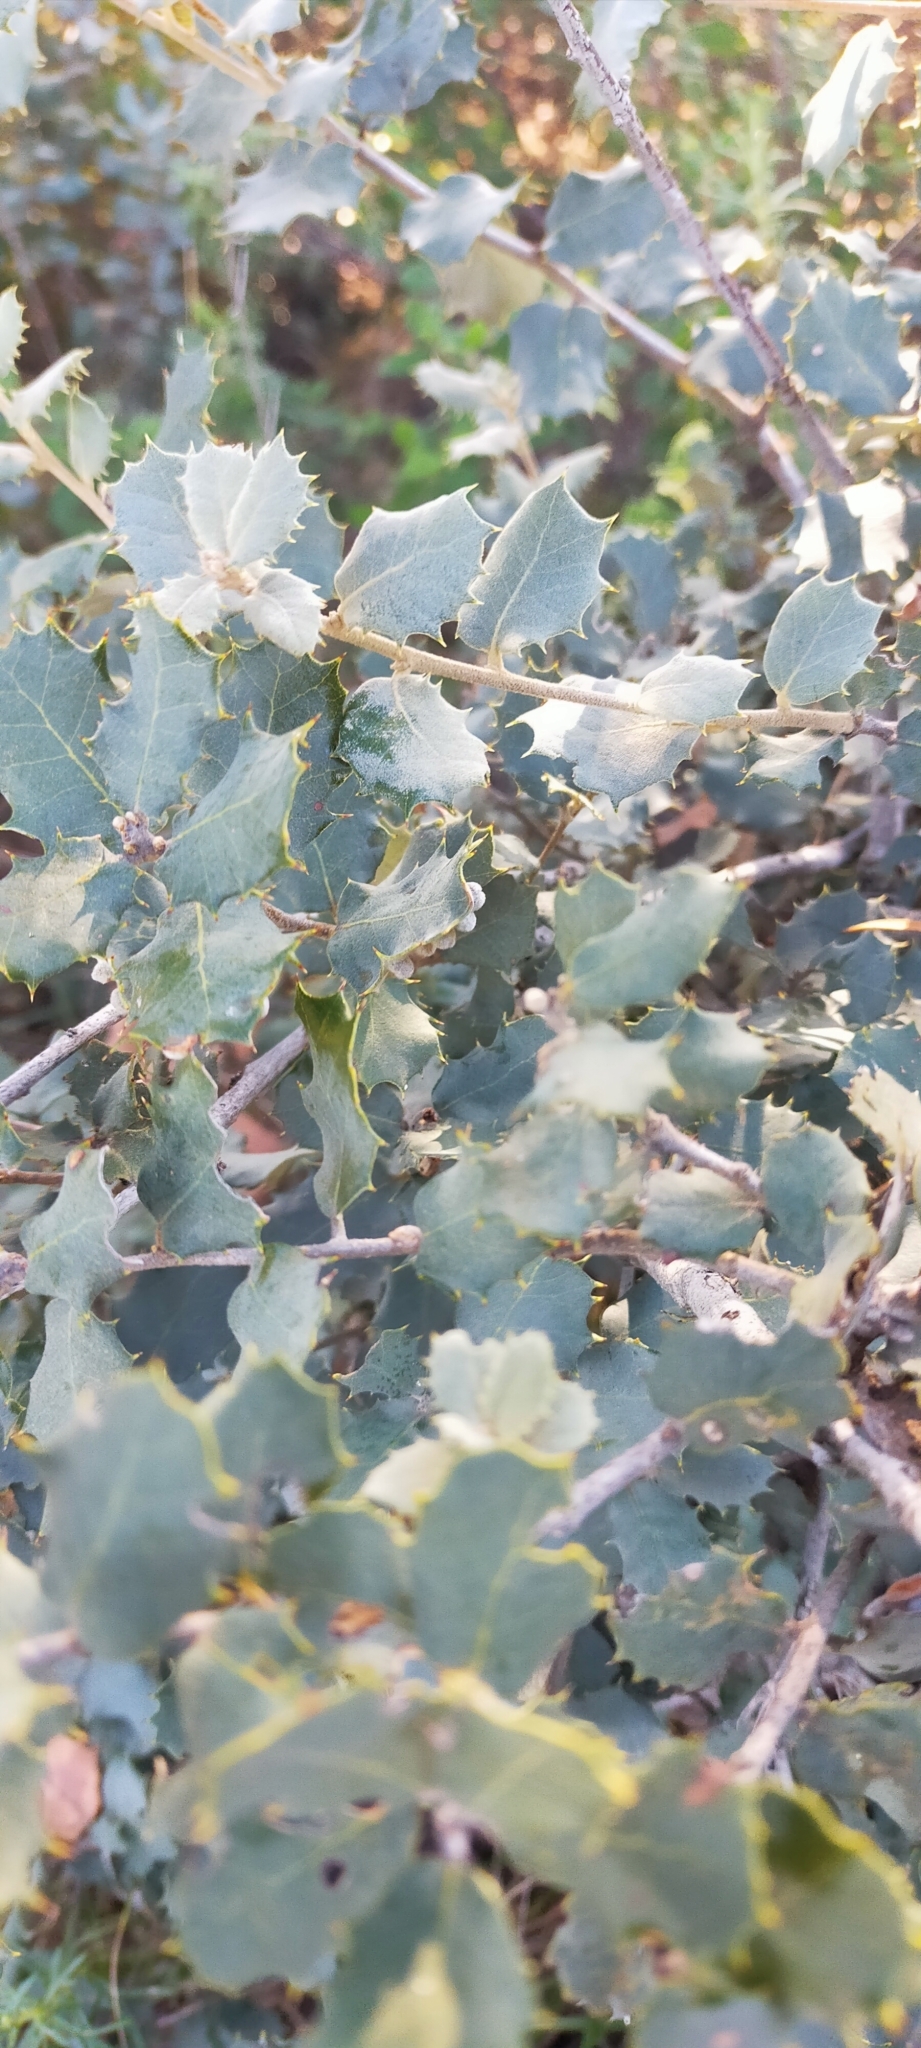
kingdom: Plantae
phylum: Tracheophyta
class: Magnoliopsida
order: Fagales
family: Fagaceae
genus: Quercus
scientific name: Quercus rotundifolia
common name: Holm oak
